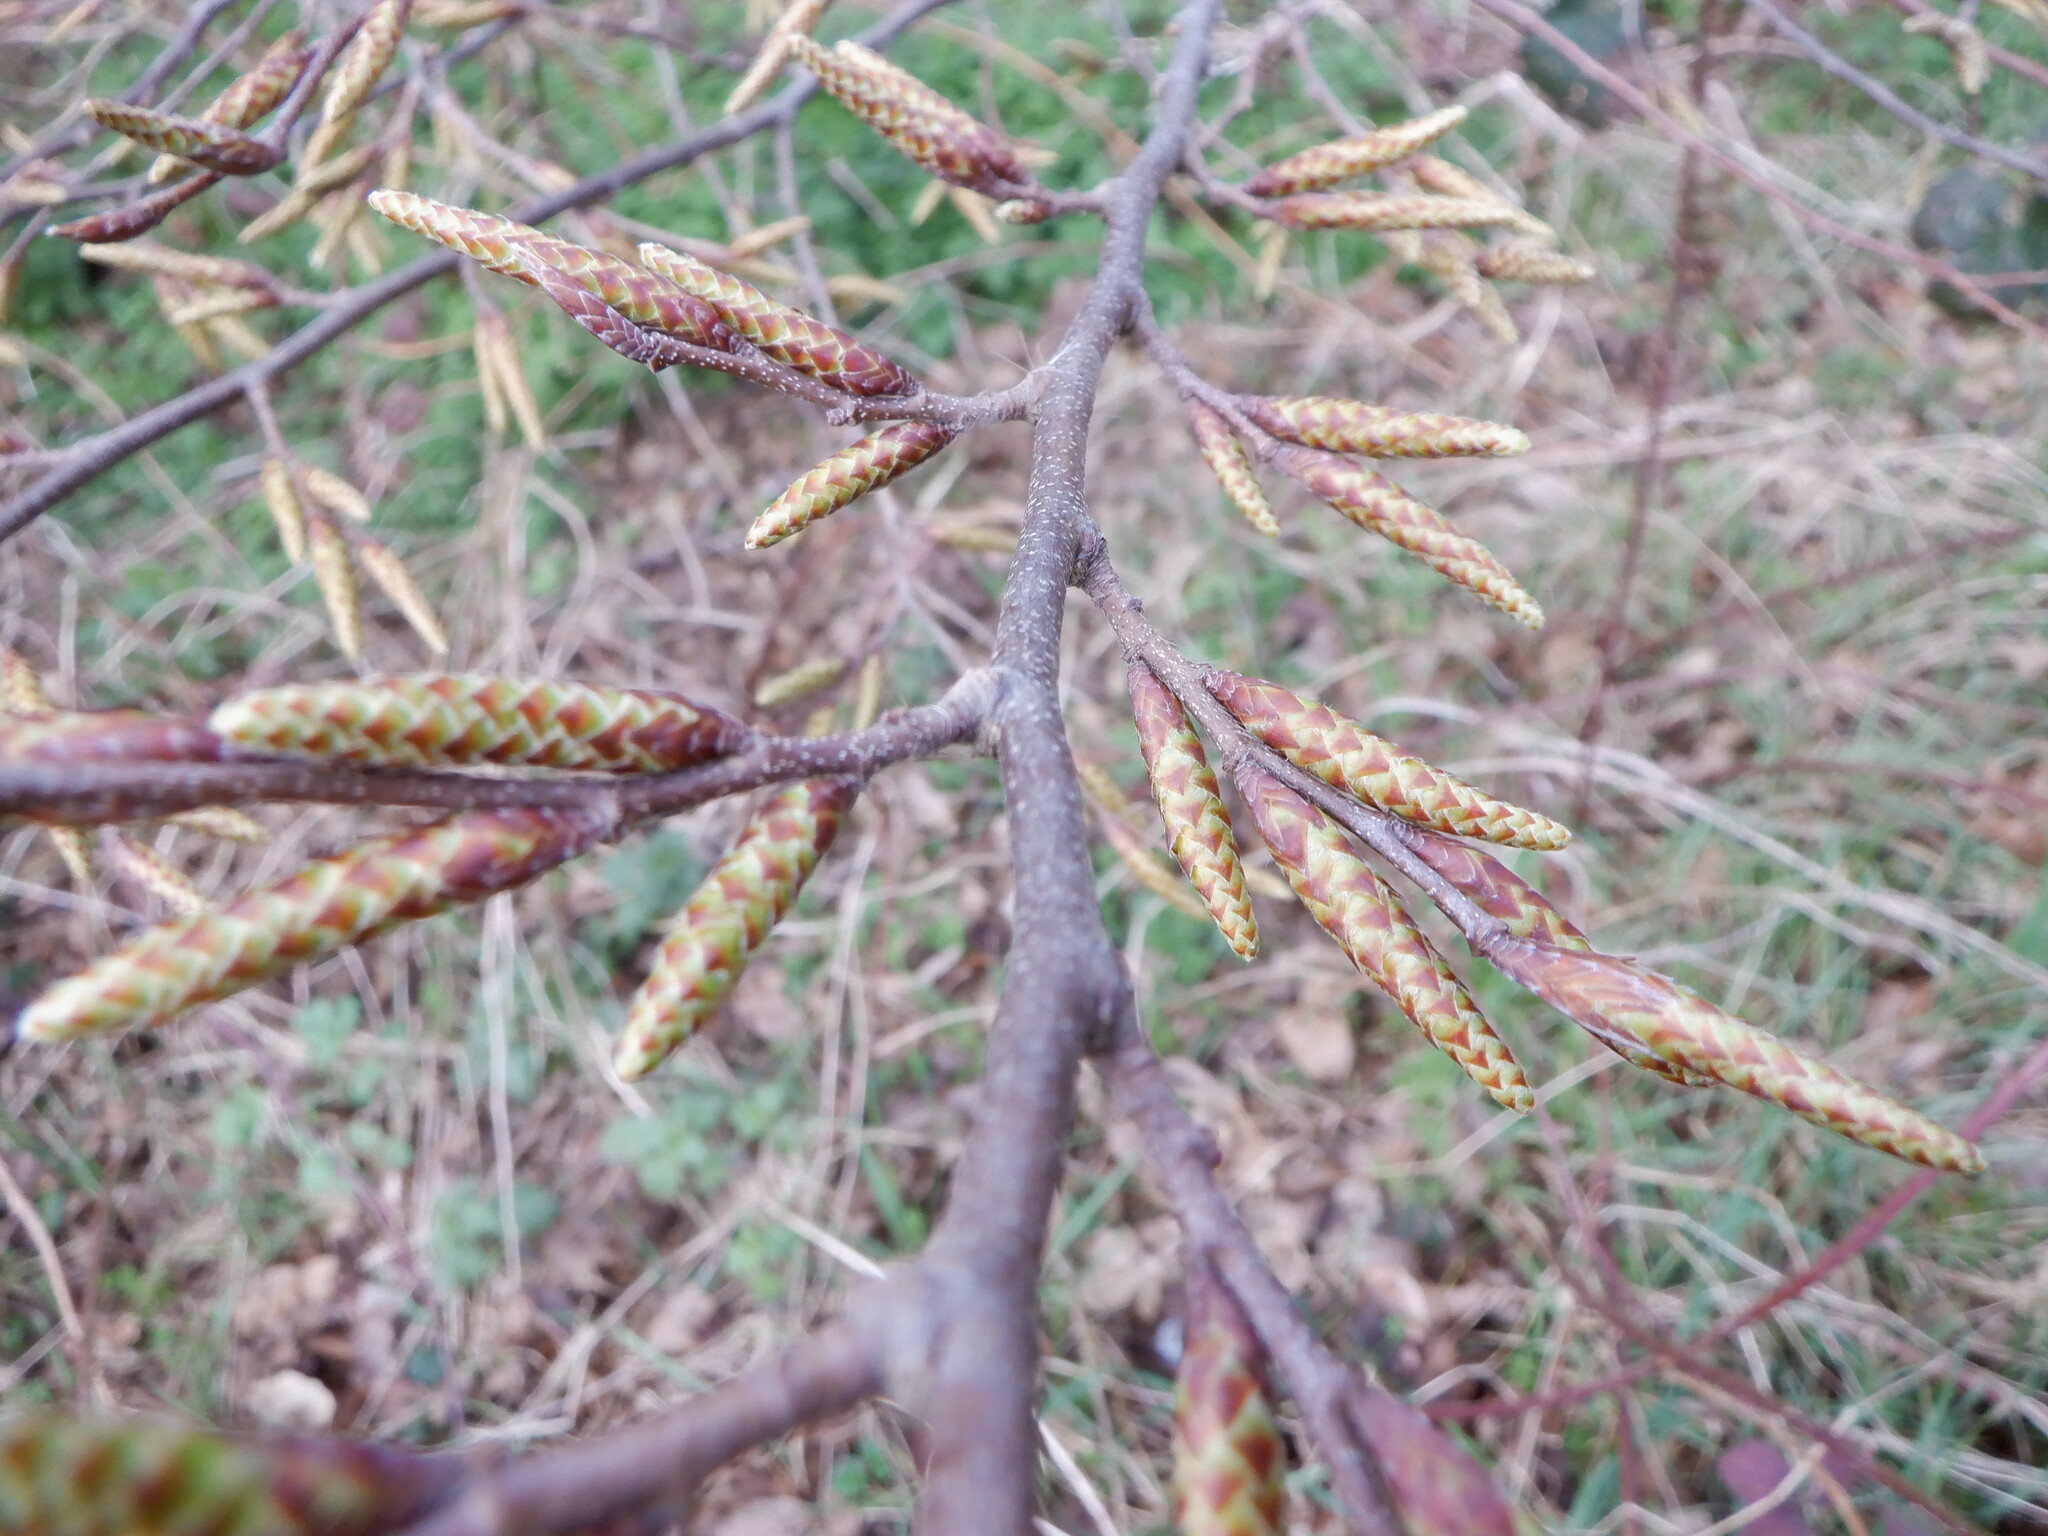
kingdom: Plantae
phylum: Tracheophyta
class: Magnoliopsida
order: Fagales
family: Betulaceae
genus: Carpinus
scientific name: Carpinus betulus
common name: Hornbeam
